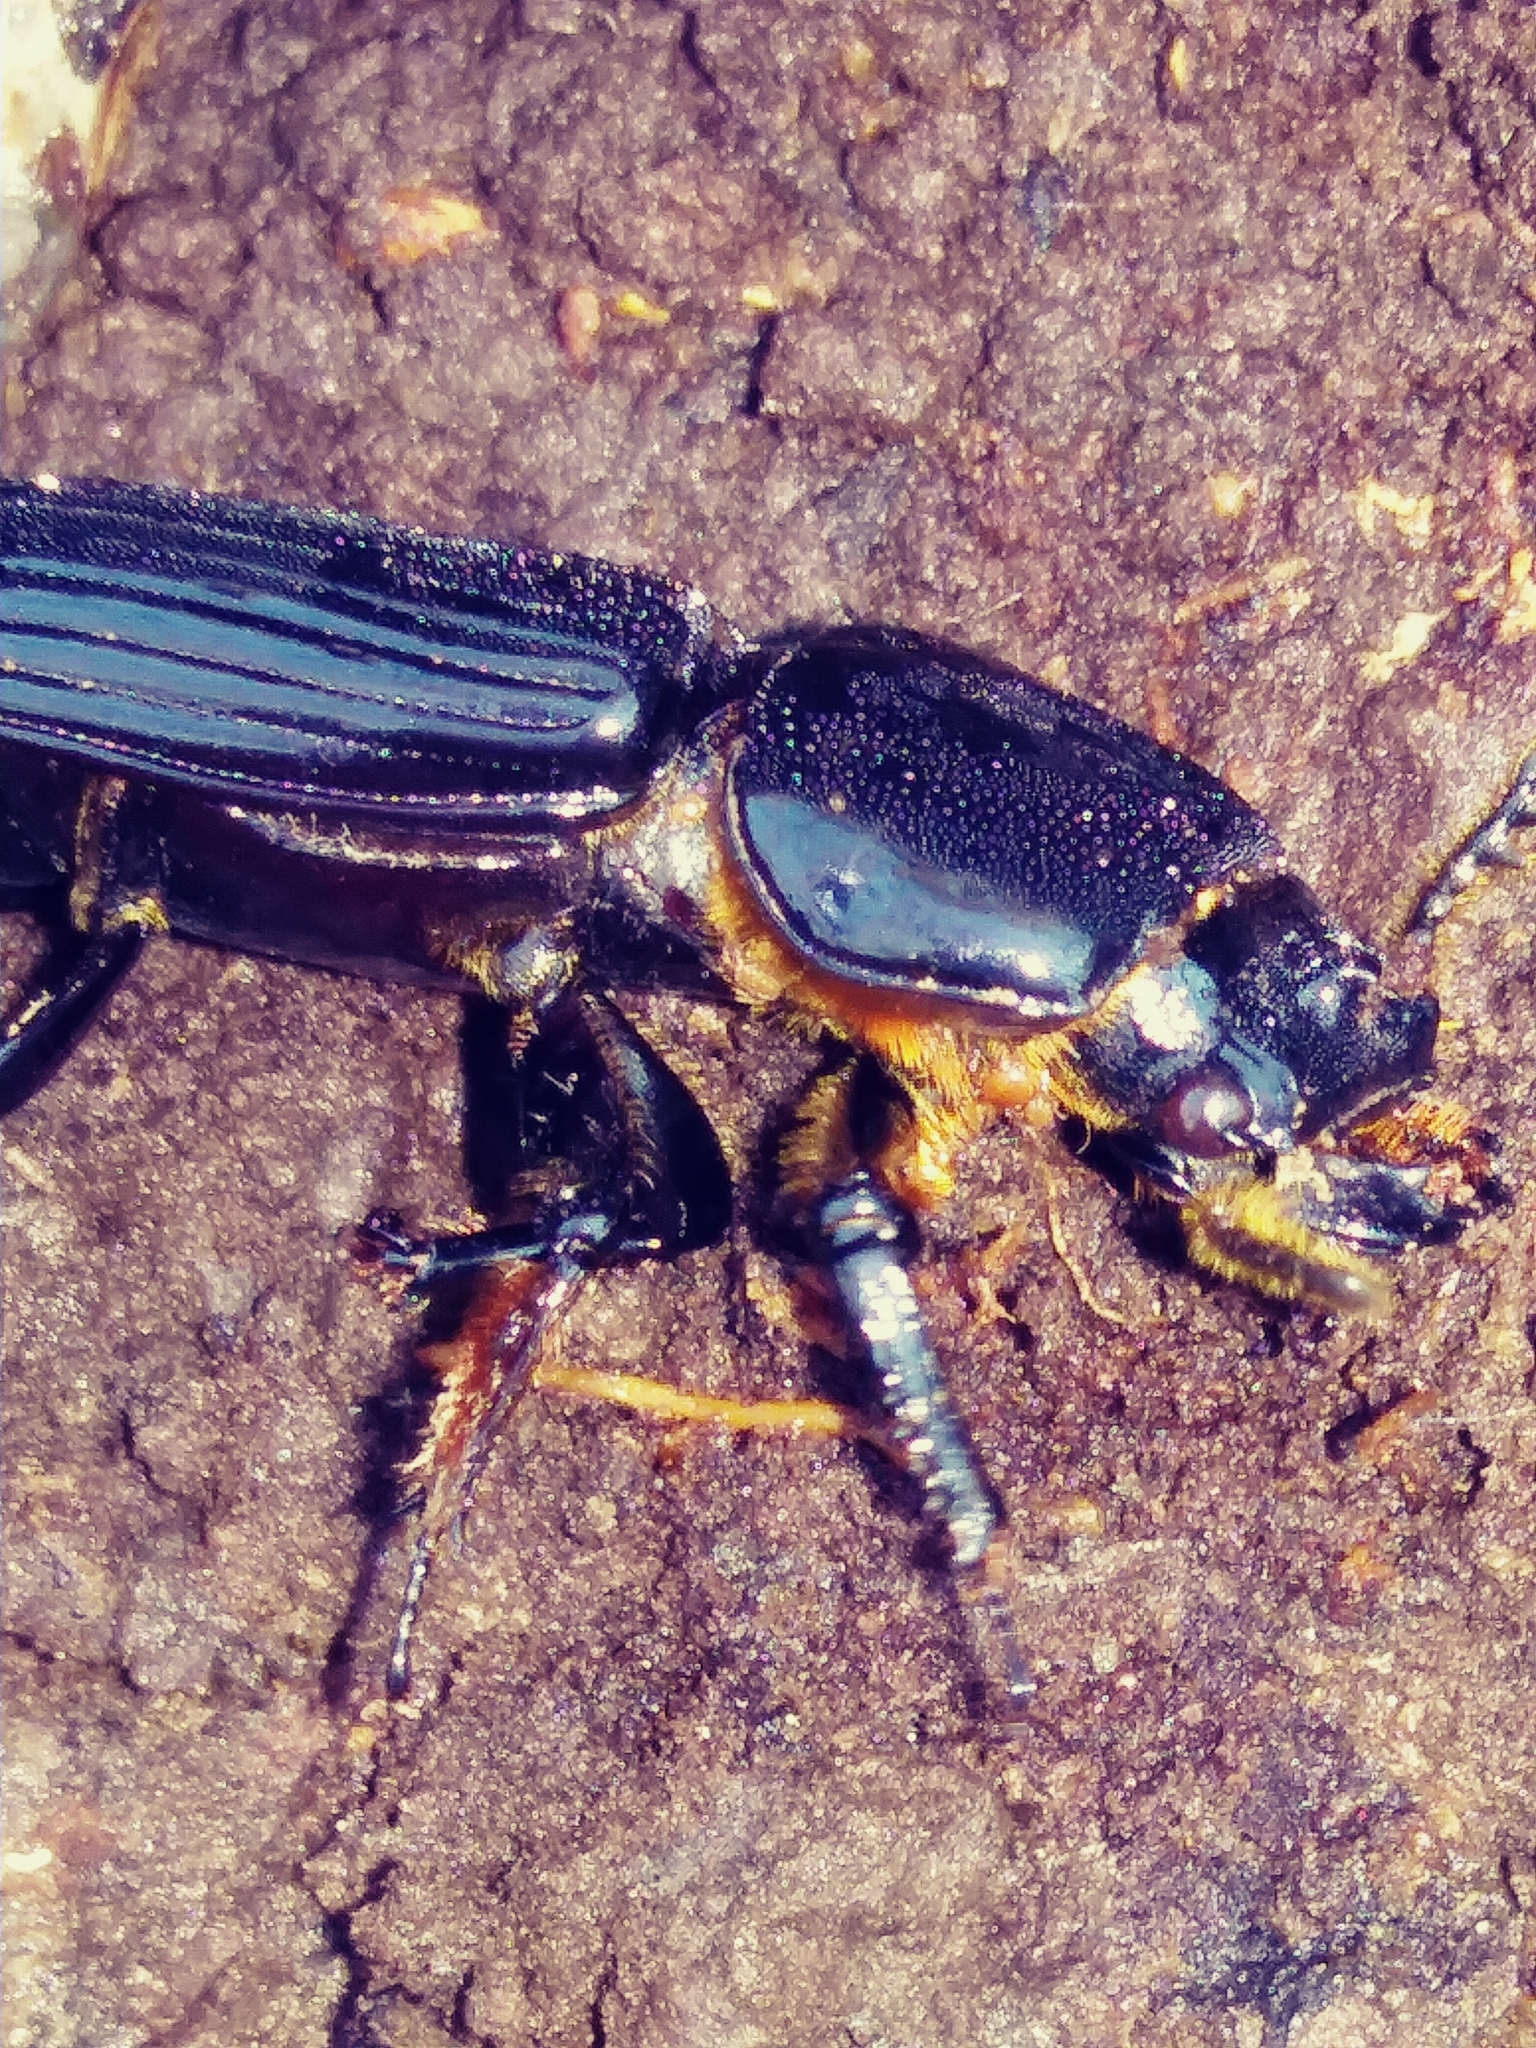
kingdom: Animalia
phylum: Arthropoda
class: Insecta
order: Coleoptera
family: Passalidae
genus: Odontotaenius
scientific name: Odontotaenius disjunctus
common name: Patent leather beetle
